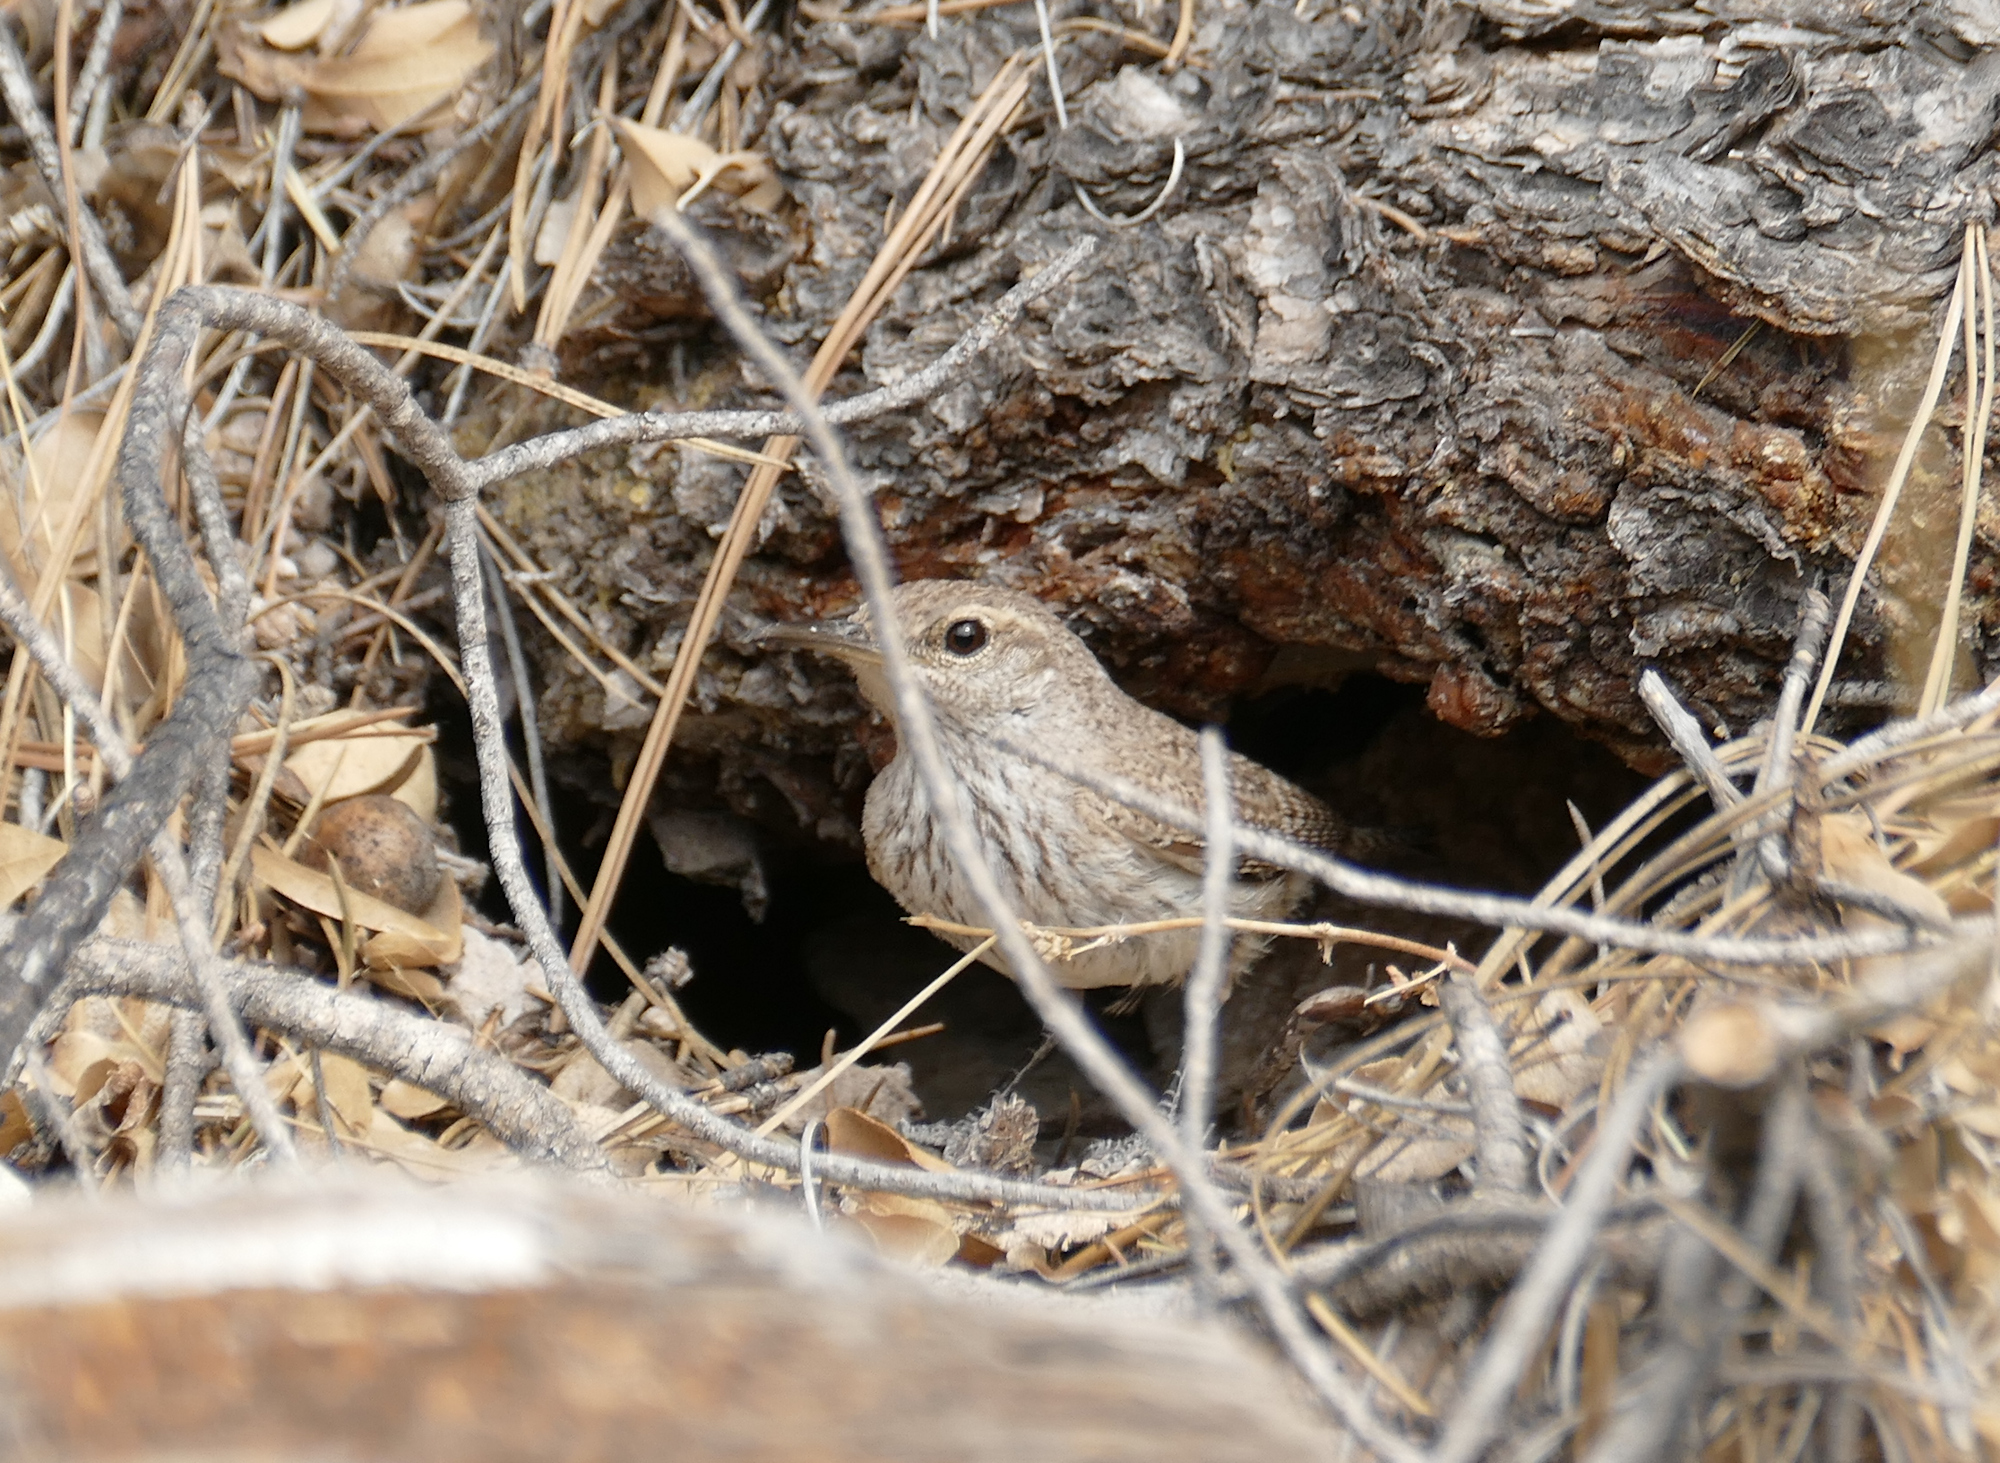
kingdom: Animalia
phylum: Chordata
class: Aves
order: Passeriformes
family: Troglodytidae
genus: Salpinctes
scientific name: Salpinctes obsoletus
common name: Rock wren
